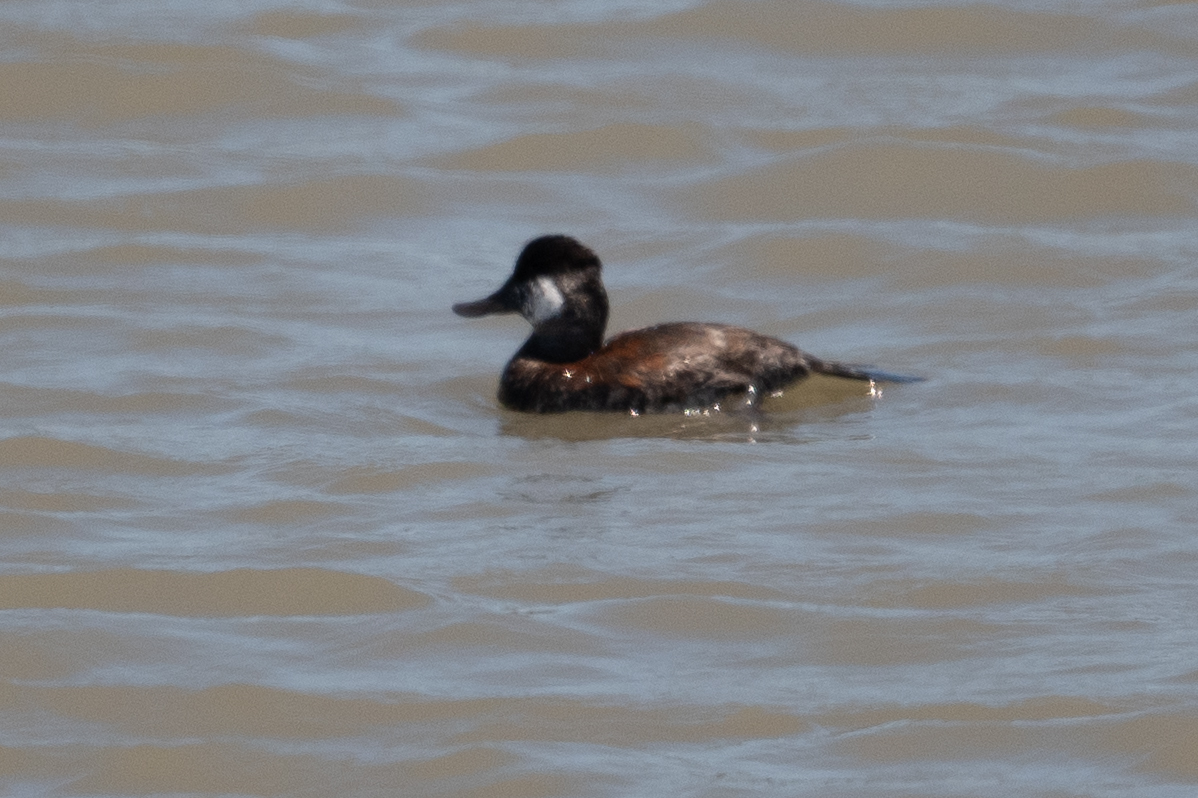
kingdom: Animalia
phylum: Chordata
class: Aves
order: Anseriformes
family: Anatidae
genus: Oxyura
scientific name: Oxyura jamaicensis
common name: Ruddy duck
